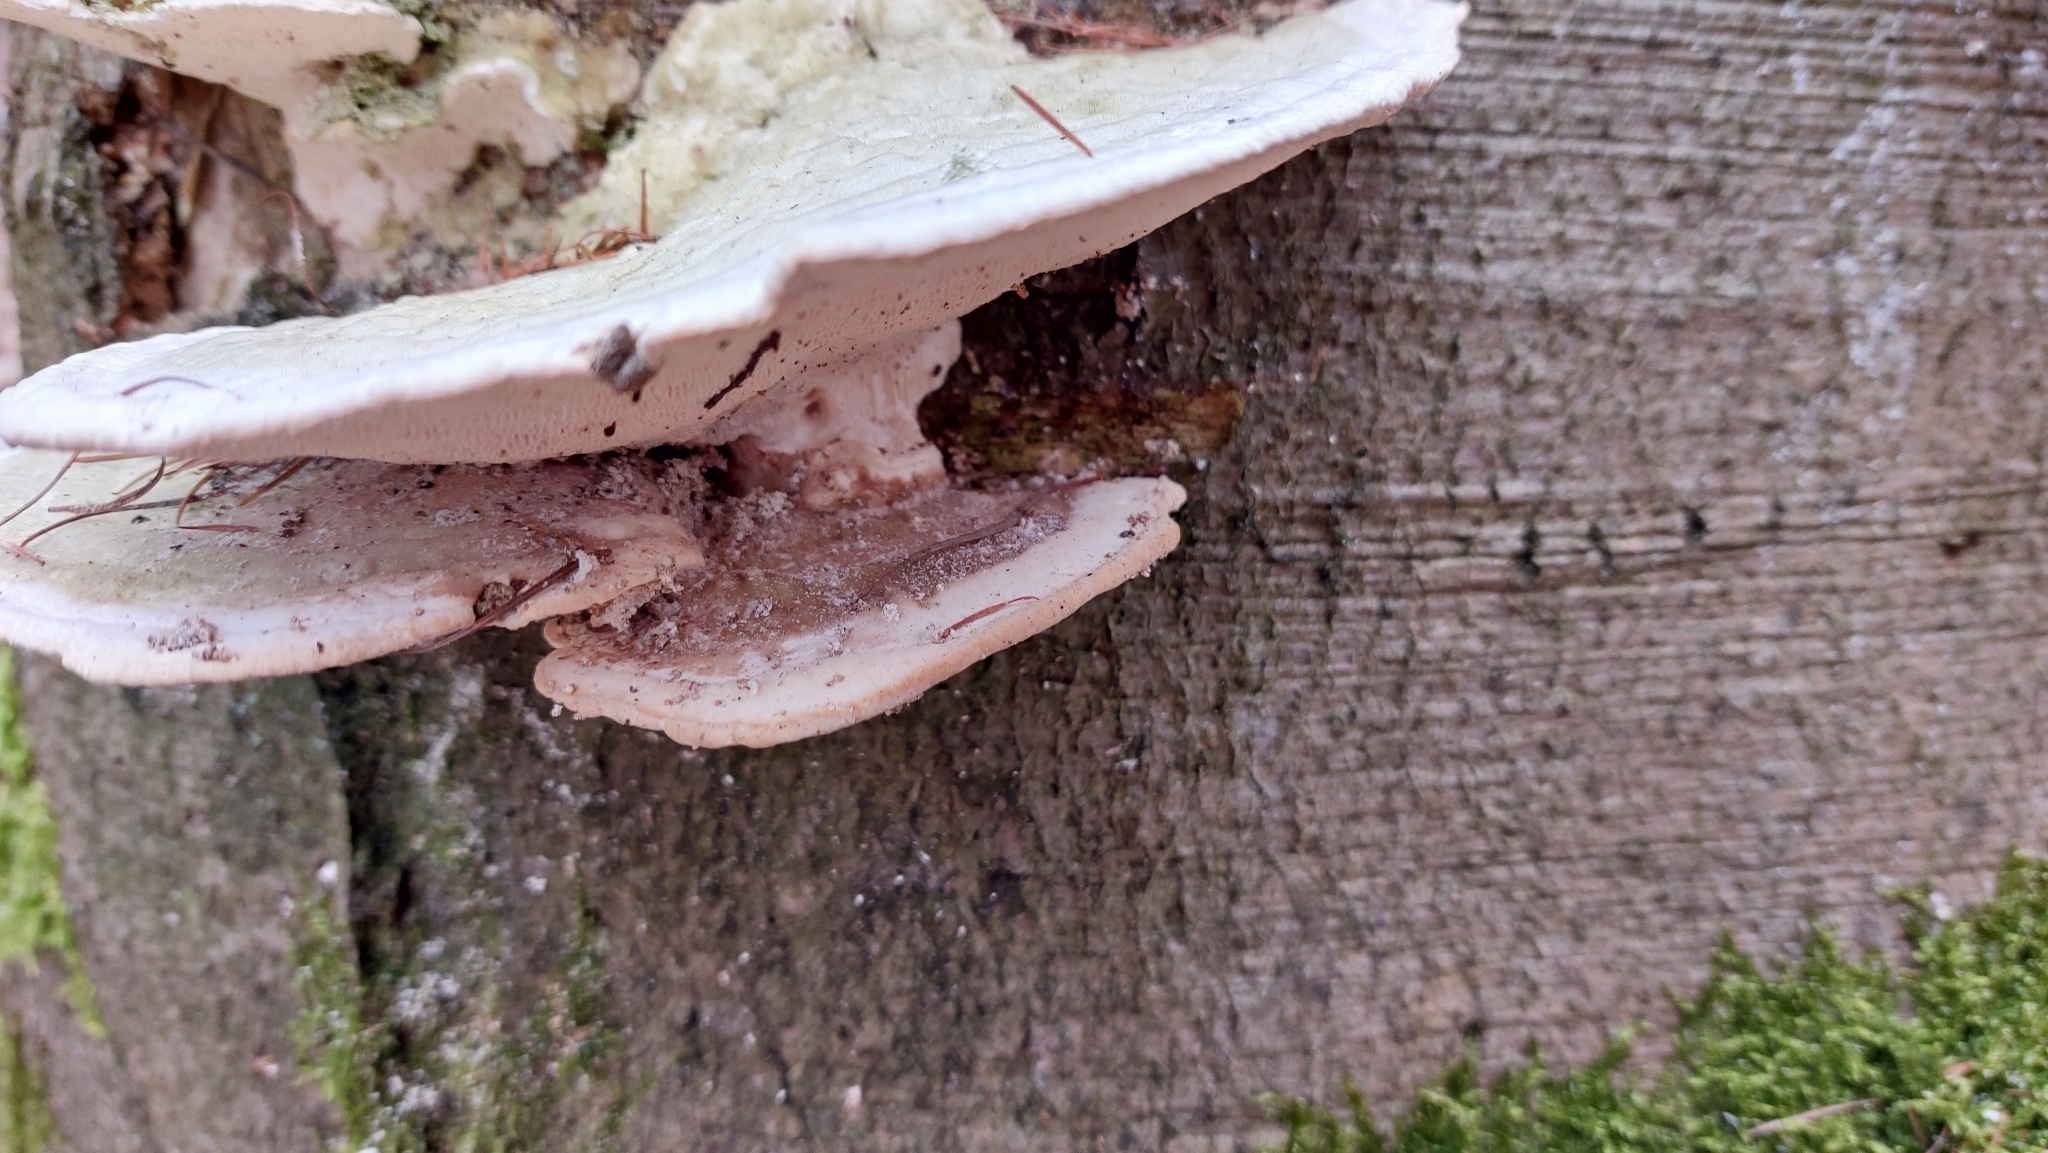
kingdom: Fungi
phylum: Basidiomycota
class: Agaricomycetes
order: Polyporales
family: Polyporaceae
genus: Trametes
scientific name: Trametes gibbosa
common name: Lumpy bracket
